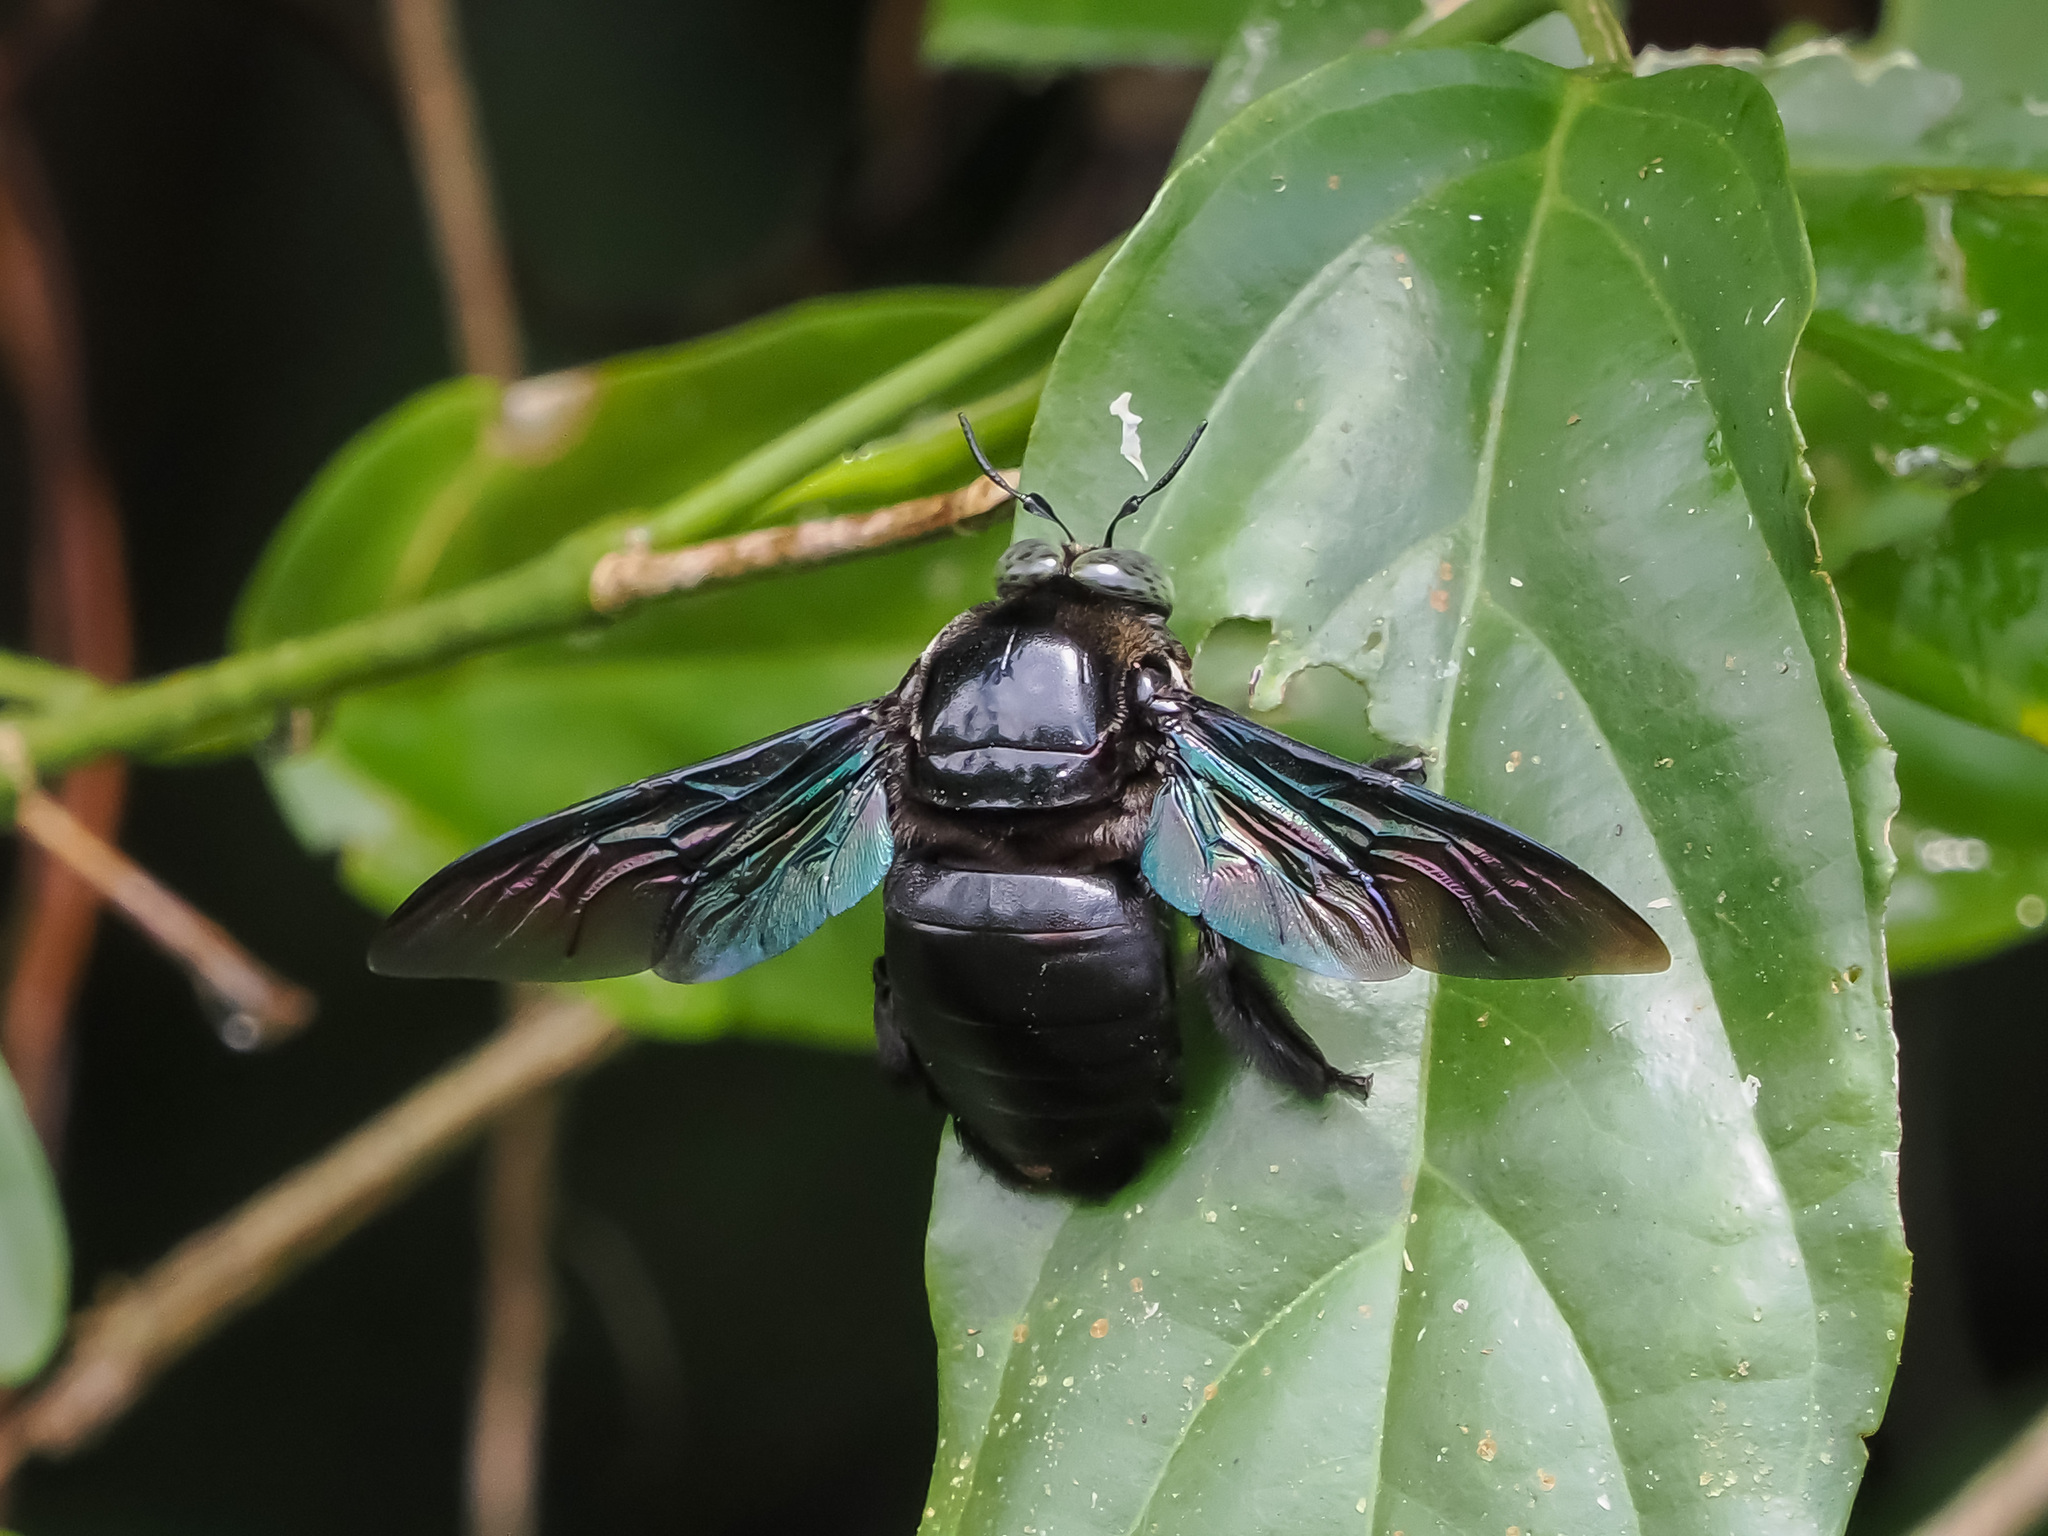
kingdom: Animalia
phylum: Arthropoda
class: Insecta
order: Hymenoptera
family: Apidae
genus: Xylocopa
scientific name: Xylocopa latipes
